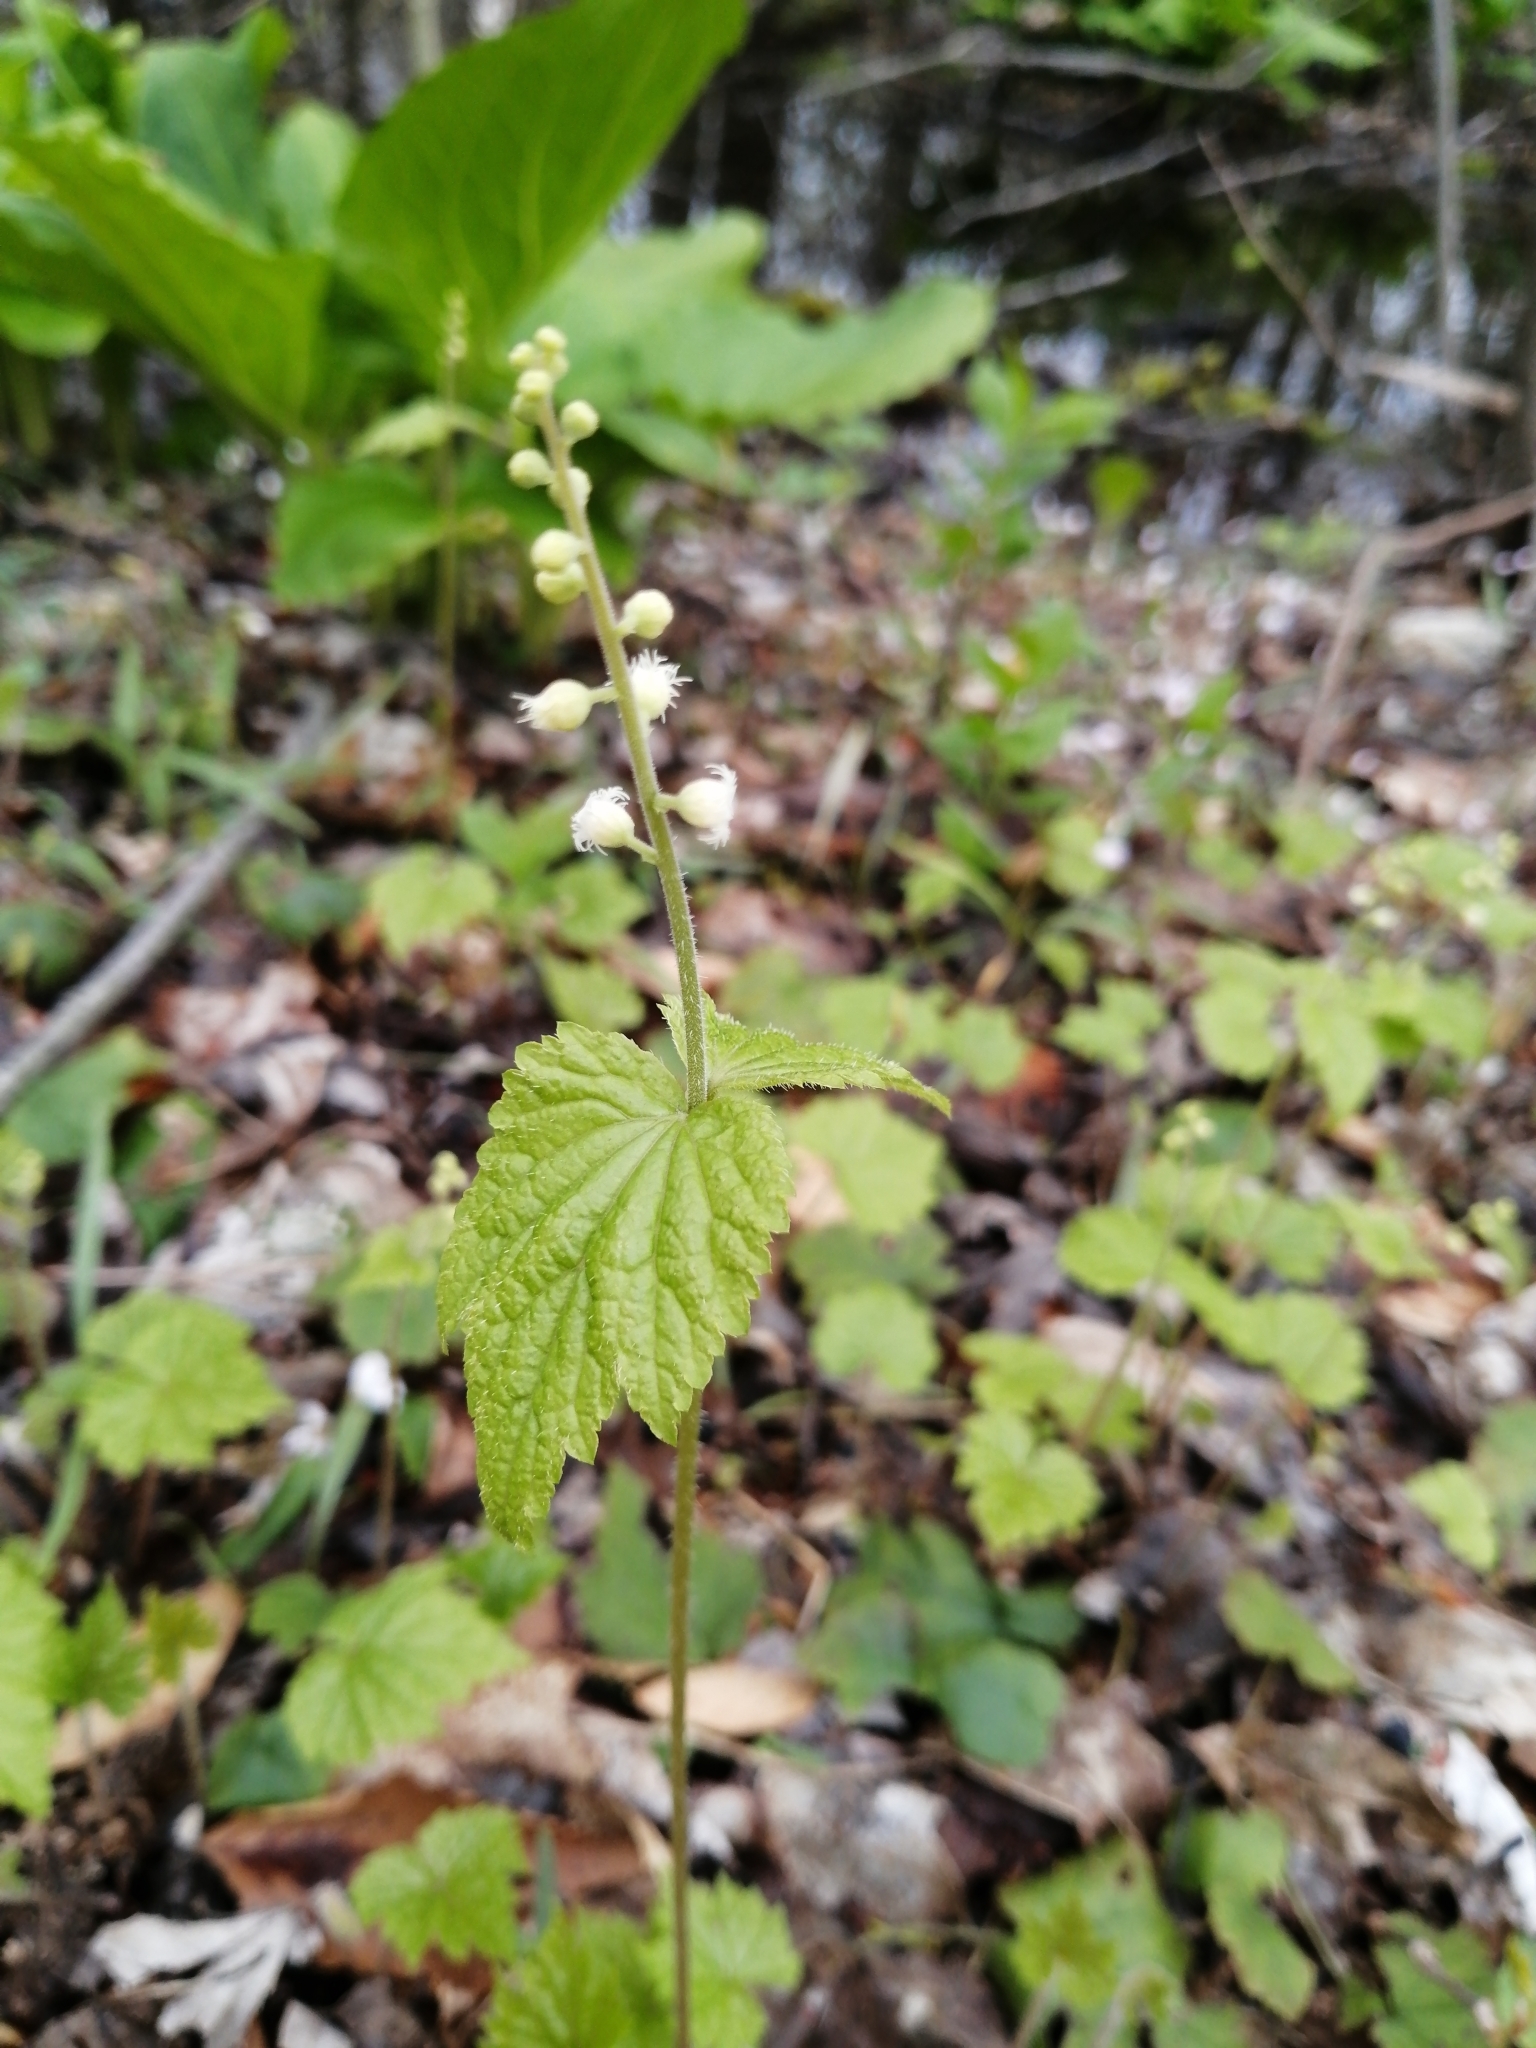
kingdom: Plantae
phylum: Tracheophyta
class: Magnoliopsida
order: Saxifragales
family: Saxifragaceae
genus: Mitella
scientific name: Mitella diphylla
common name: Coolwort
